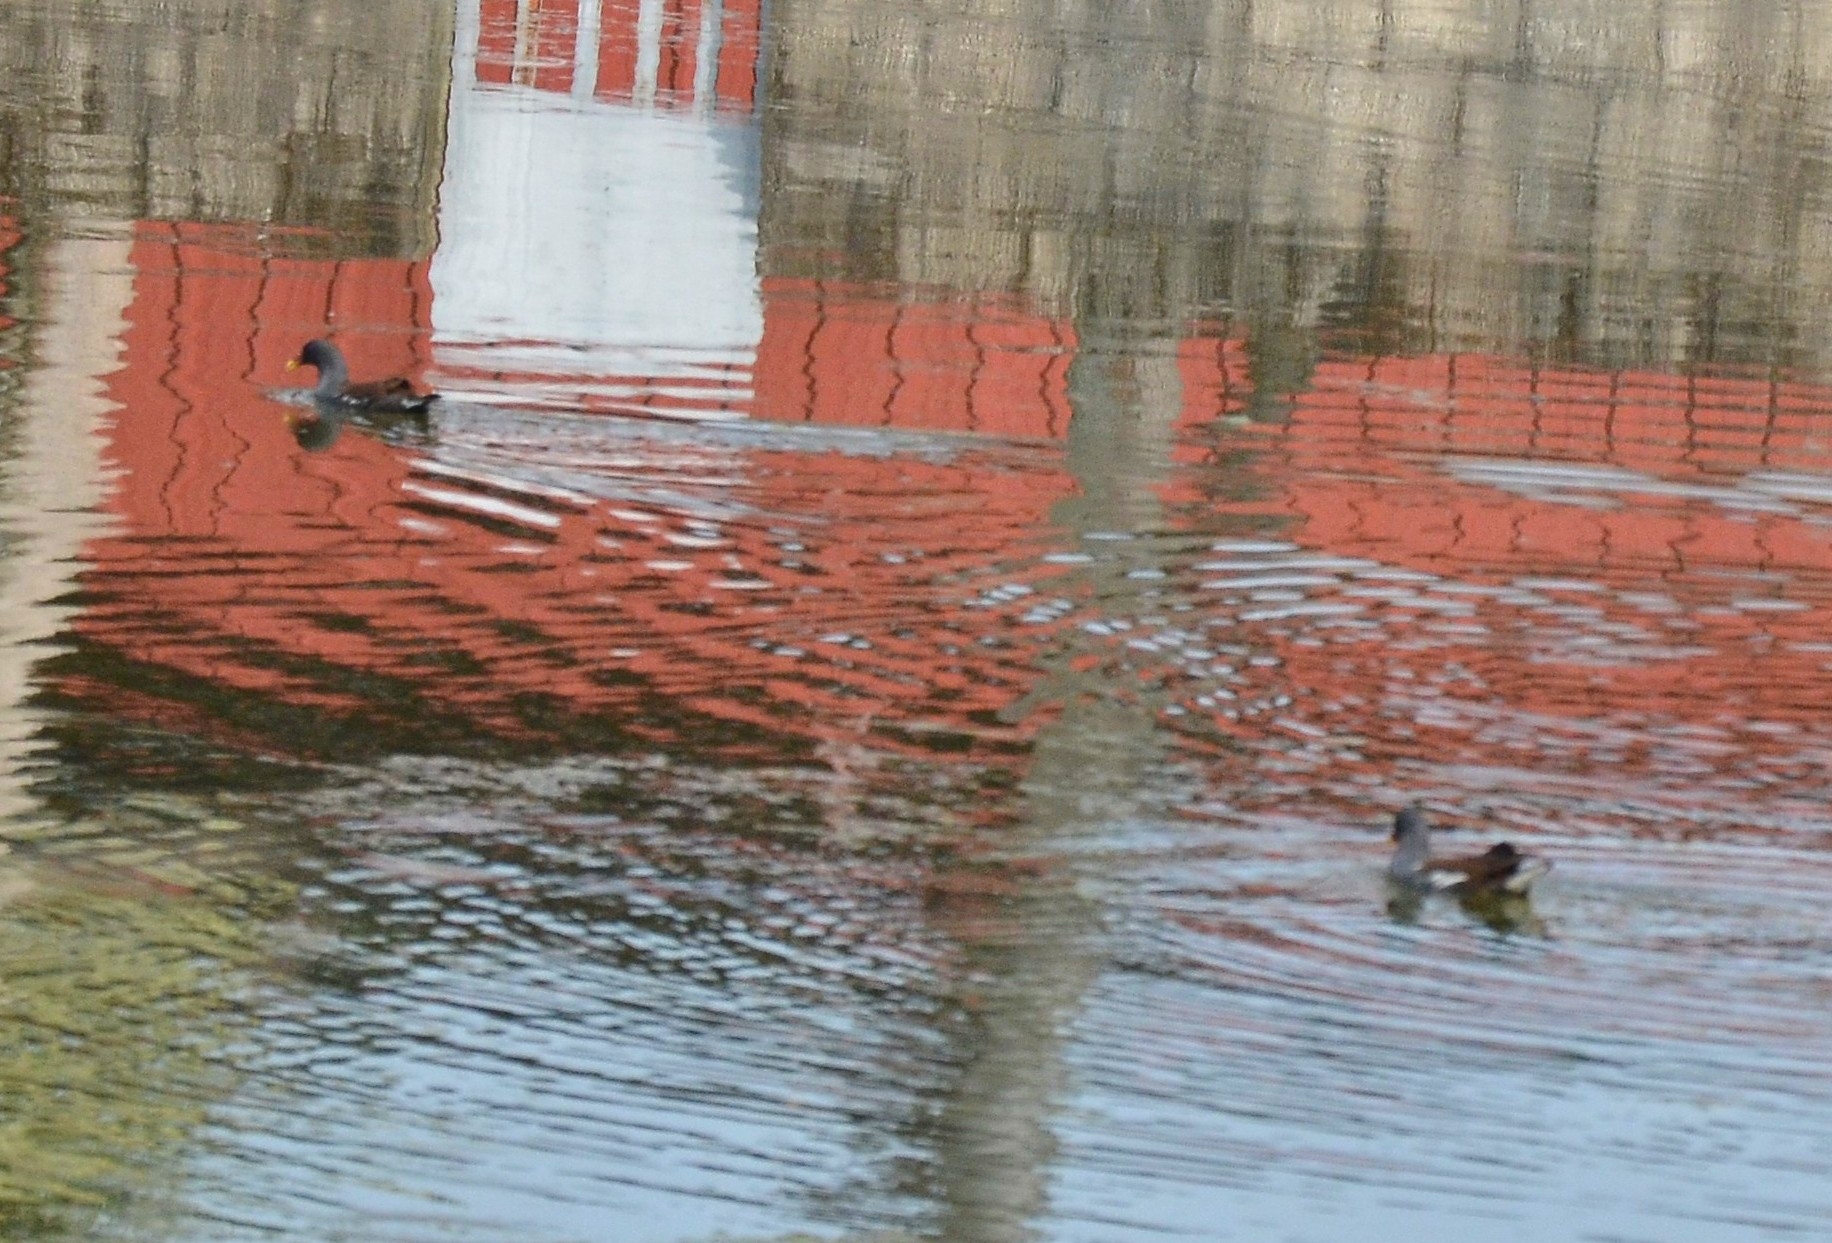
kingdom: Animalia
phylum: Chordata
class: Aves
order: Gruiformes
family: Rallidae
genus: Gallinula
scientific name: Gallinula chloropus
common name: Common moorhen
